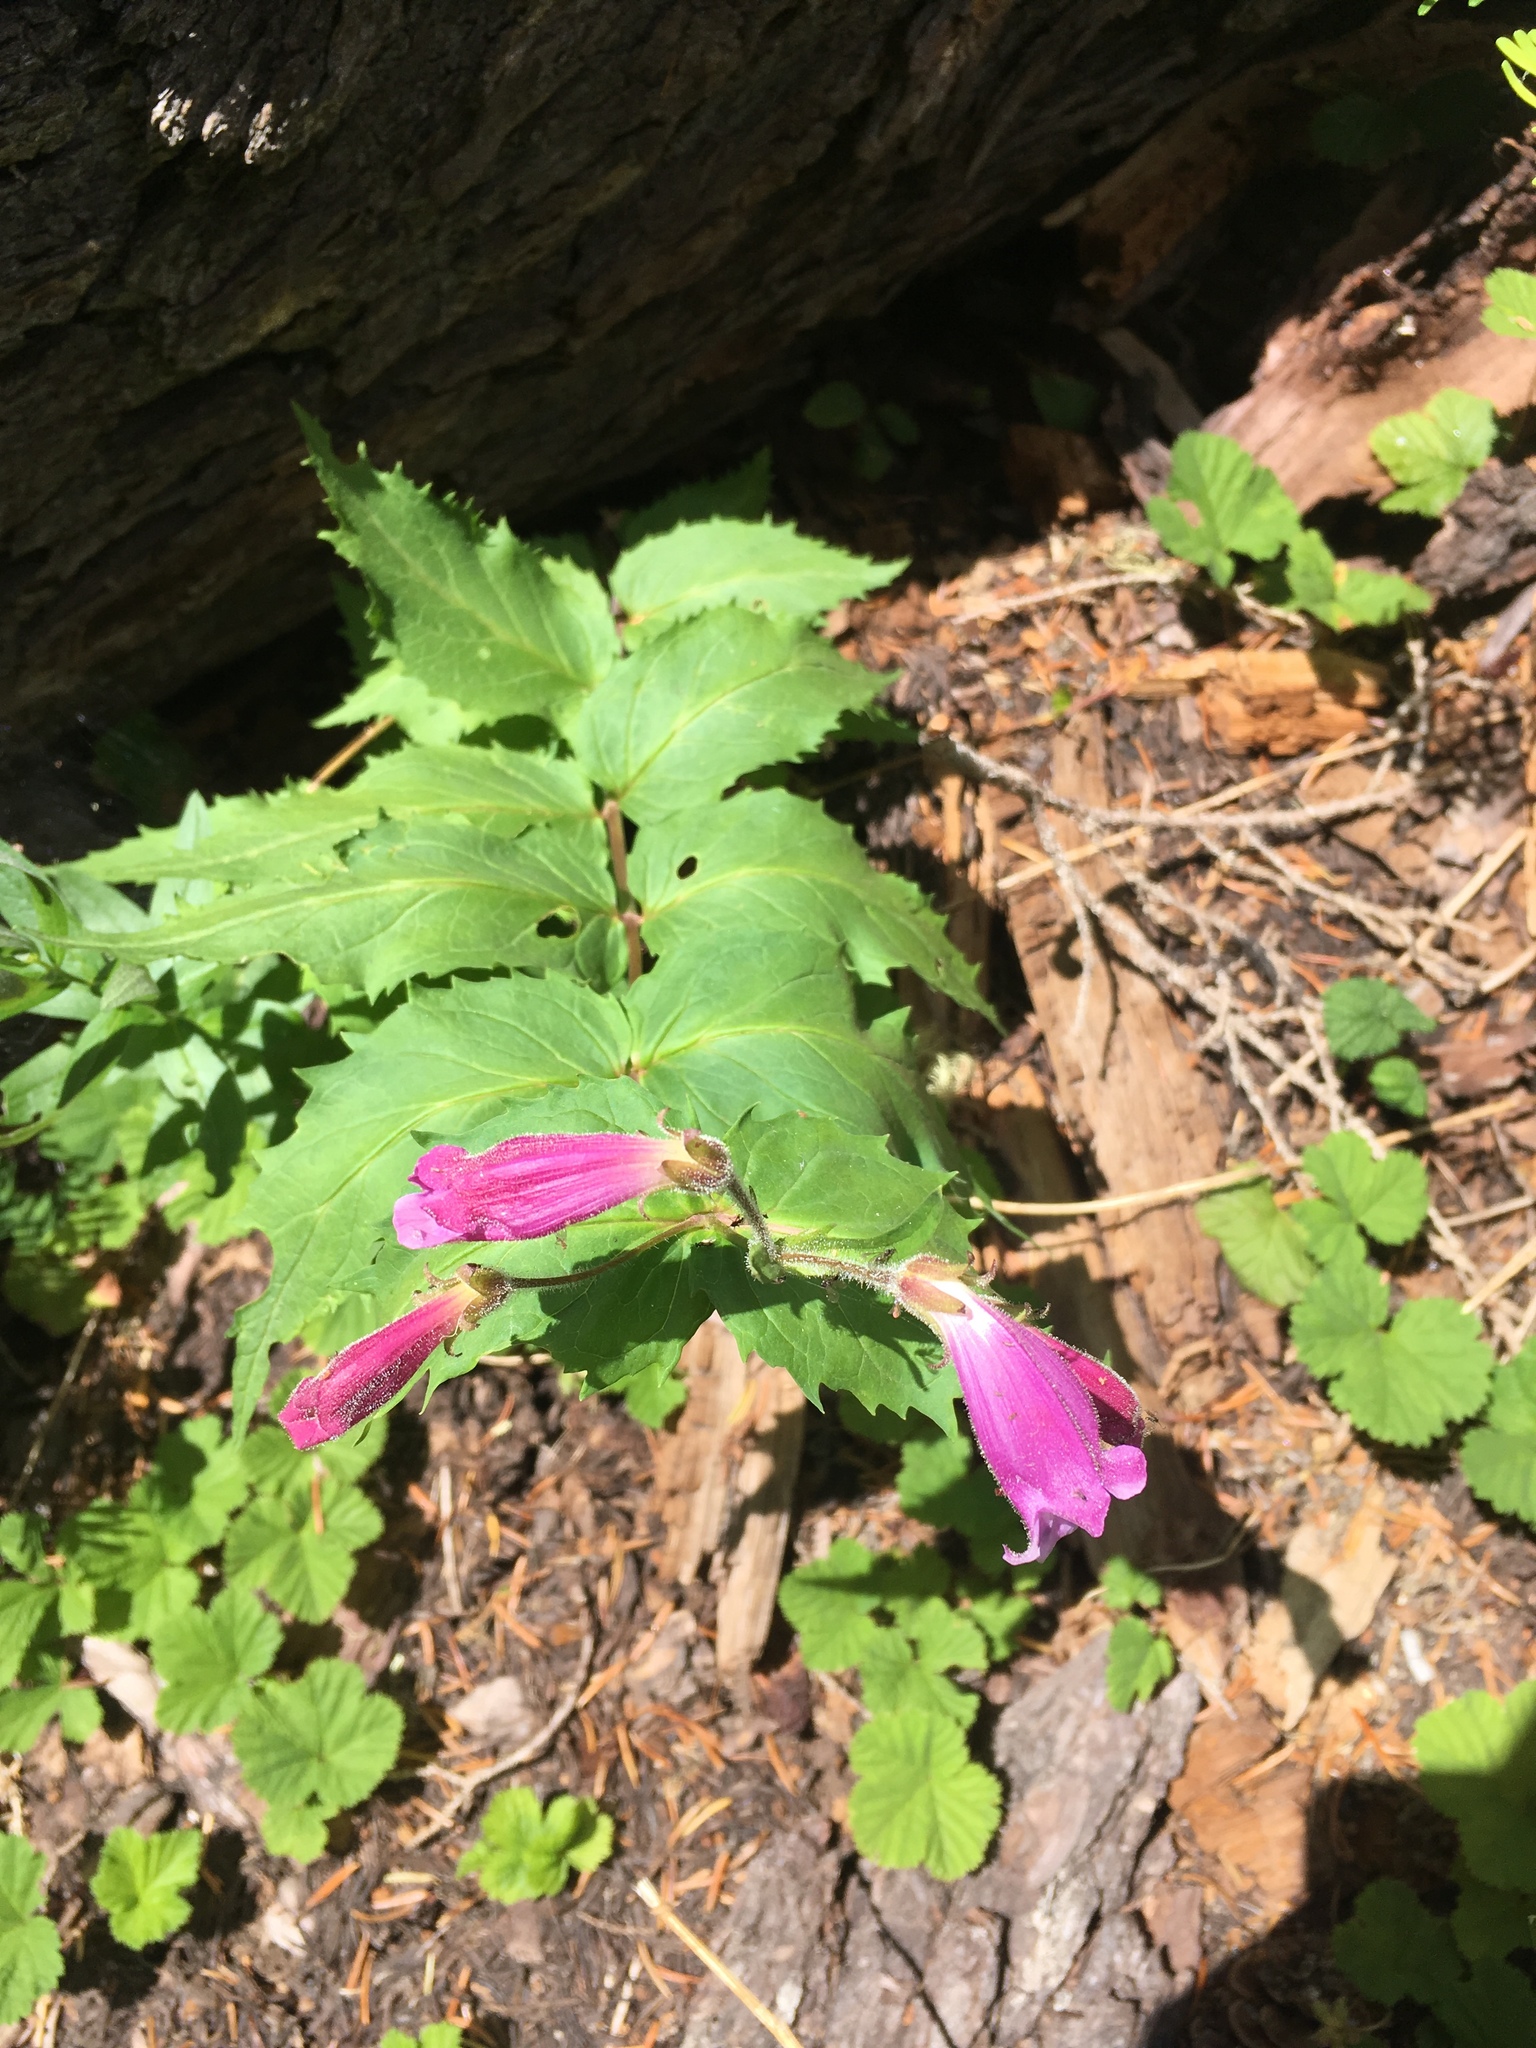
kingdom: Plantae
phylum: Tracheophyta
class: Magnoliopsida
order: Lamiales
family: Plantaginaceae
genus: Nothochelone
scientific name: Nothochelone nemorosa
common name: Woodland beardtongue
